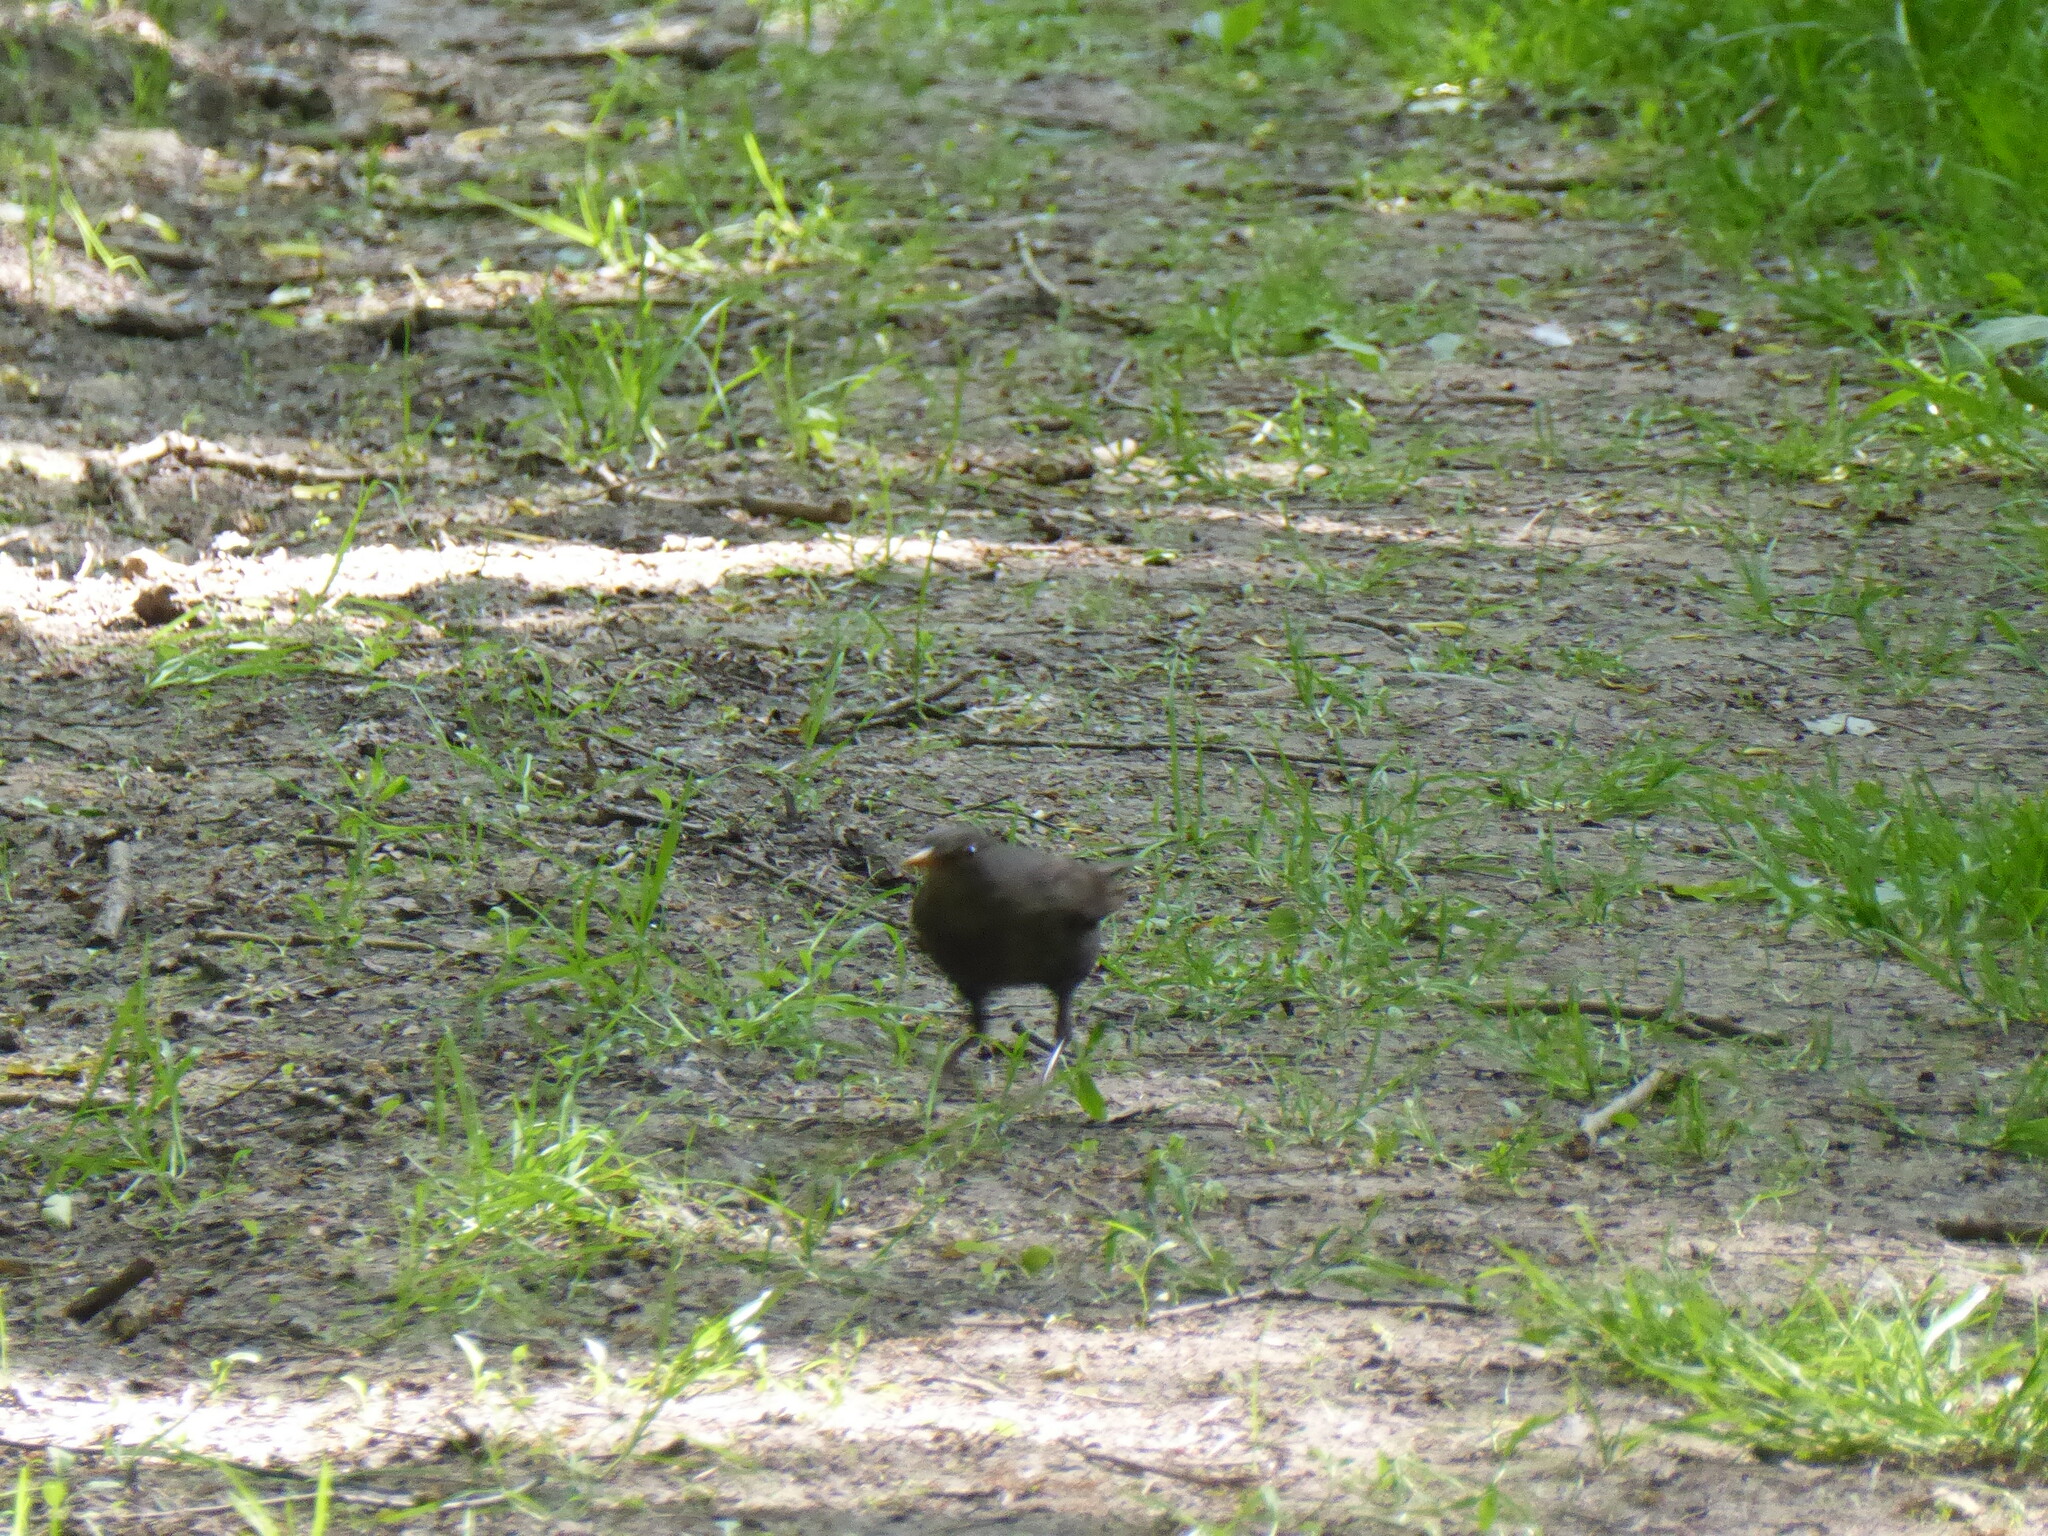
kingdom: Animalia
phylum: Chordata
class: Aves
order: Passeriformes
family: Turdidae
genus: Turdus
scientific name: Turdus merula
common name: Common blackbird
